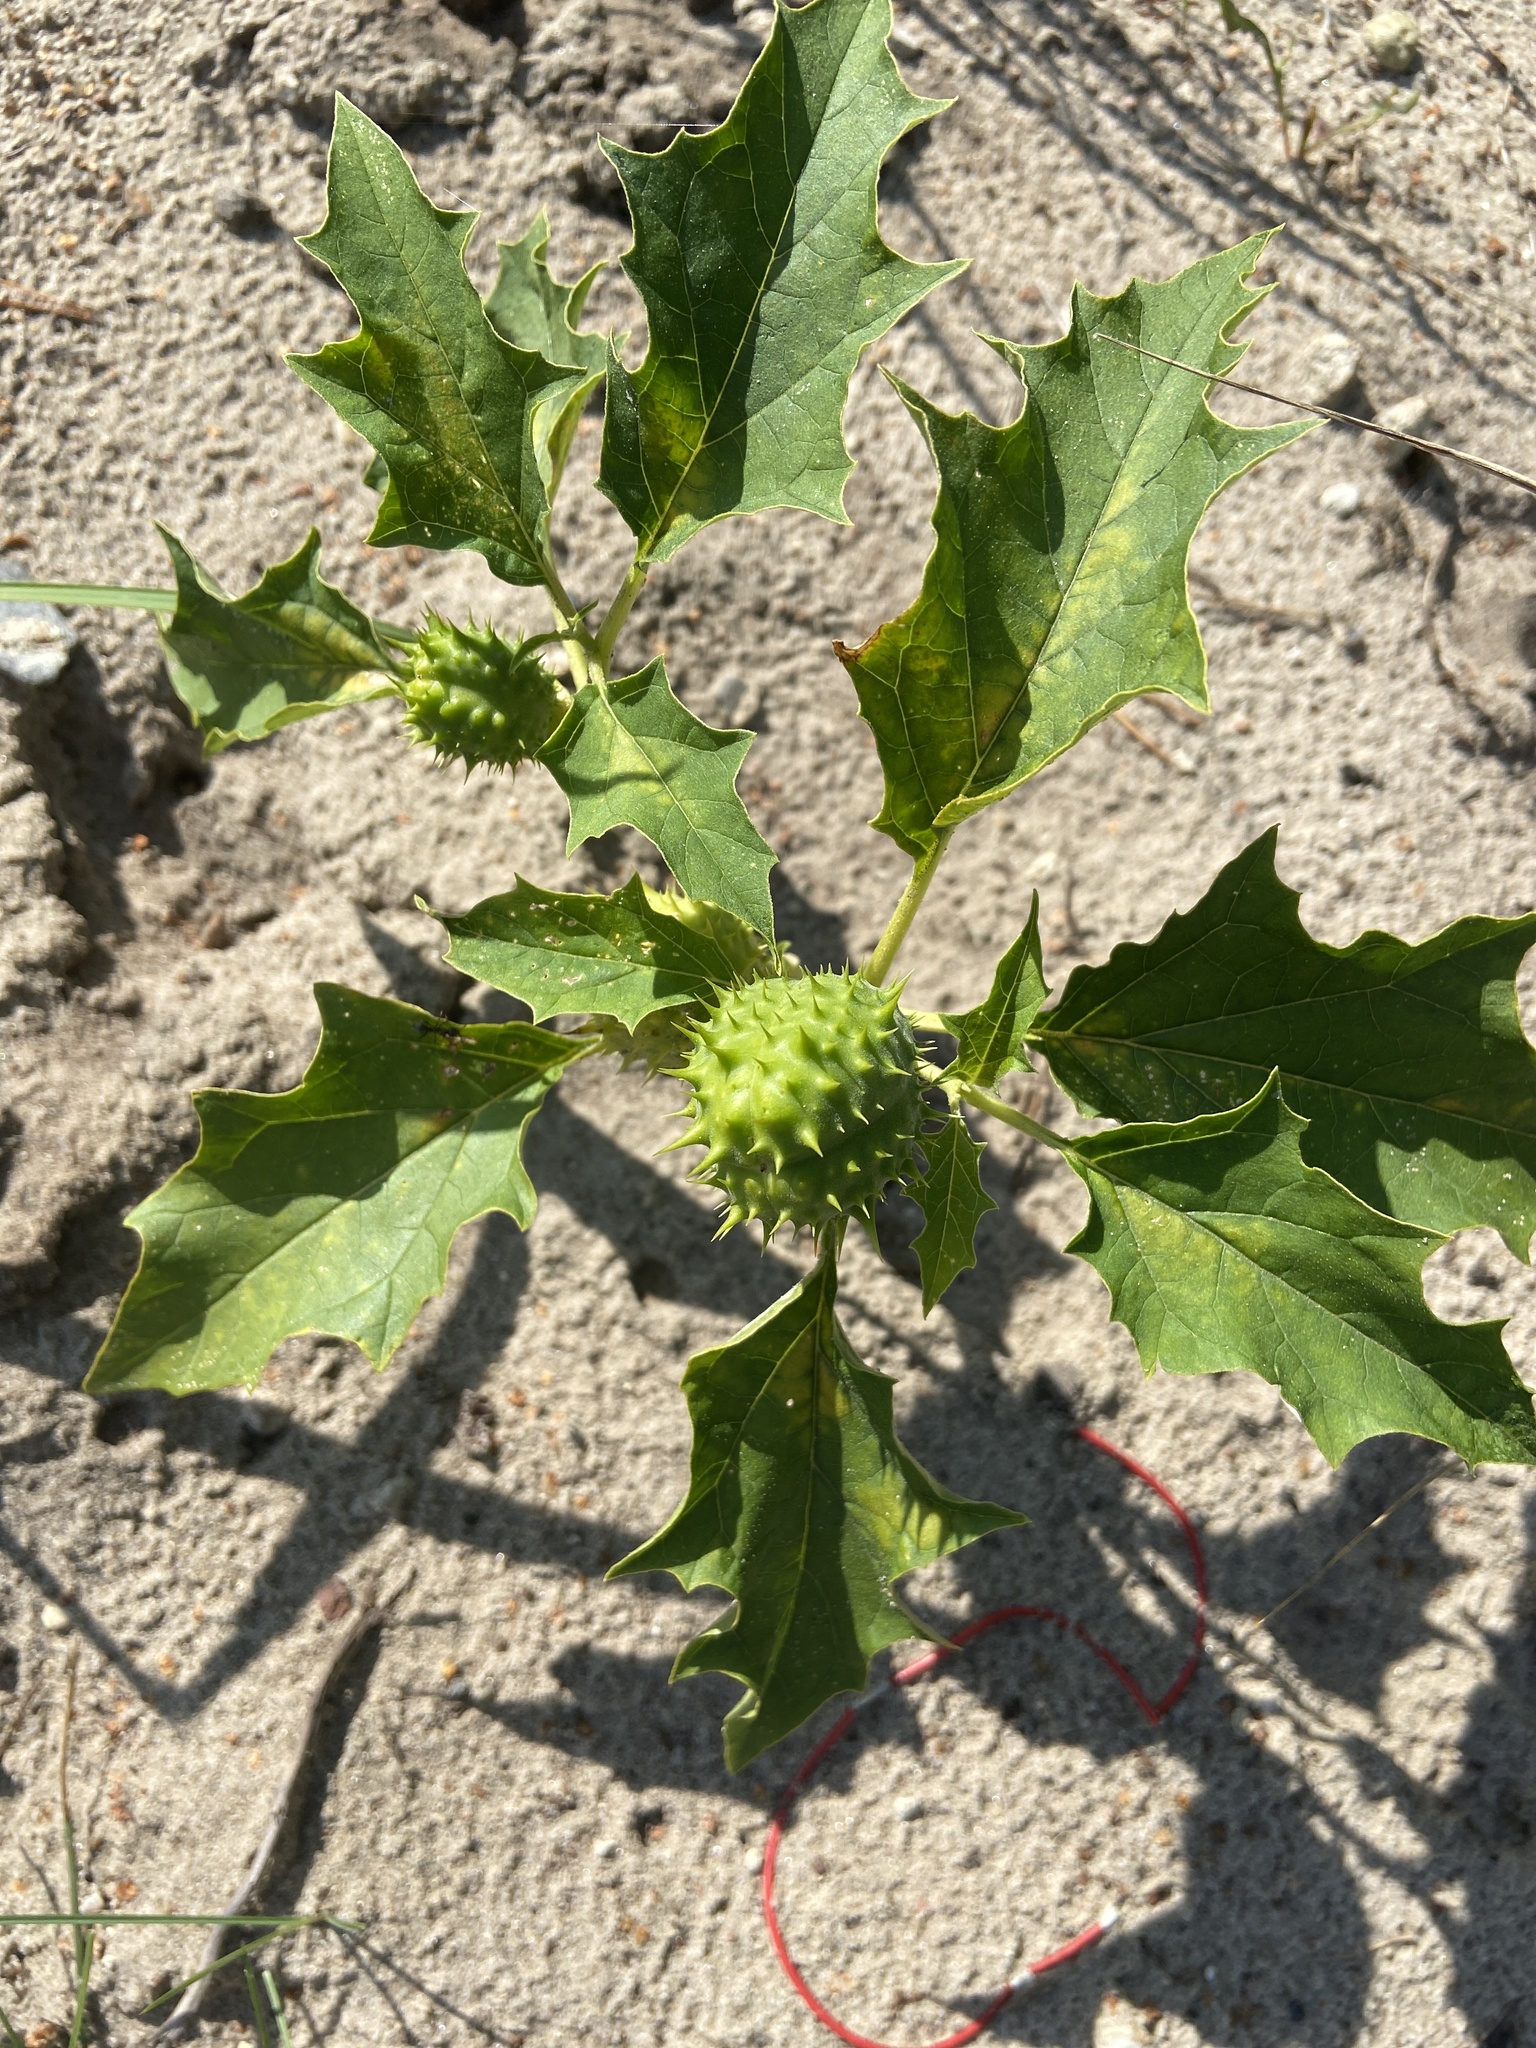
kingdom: Plantae
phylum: Tracheophyta
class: Magnoliopsida
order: Solanales
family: Solanaceae
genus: Datura
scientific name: Datura stramonium
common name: Thorn-apple
